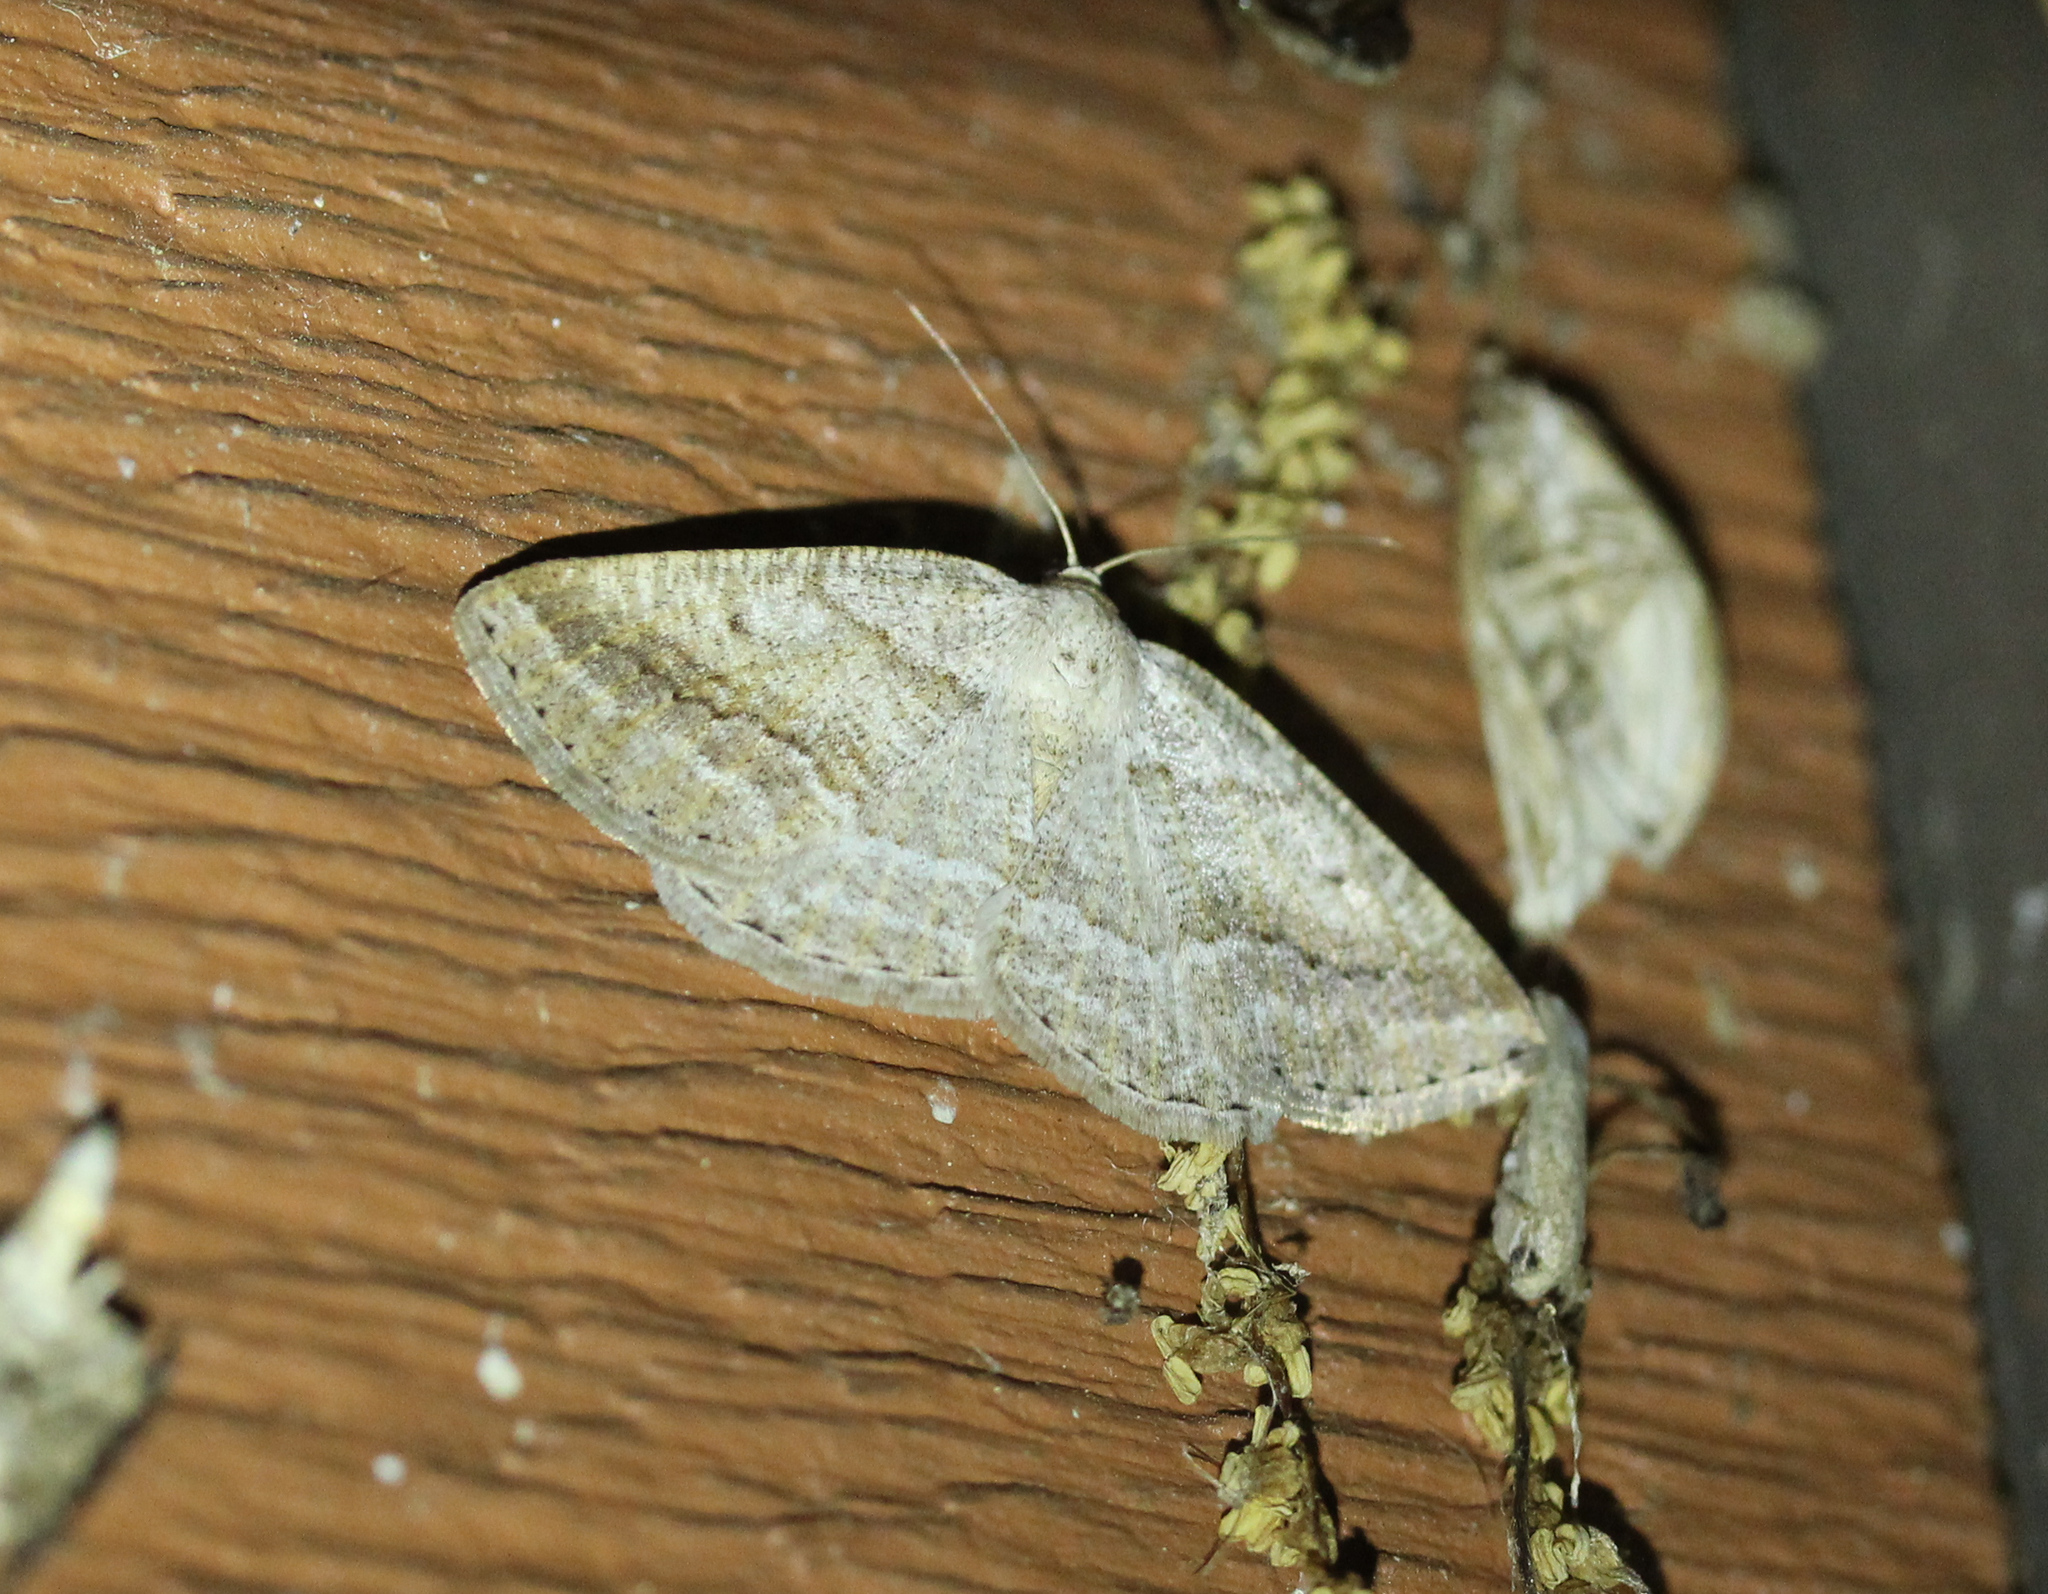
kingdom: Animalia
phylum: Arthropoda
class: Insecta
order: Lepidoptera
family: Geometridae
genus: Tacparia
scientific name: Tacparia detersata
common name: Pale alder moth
